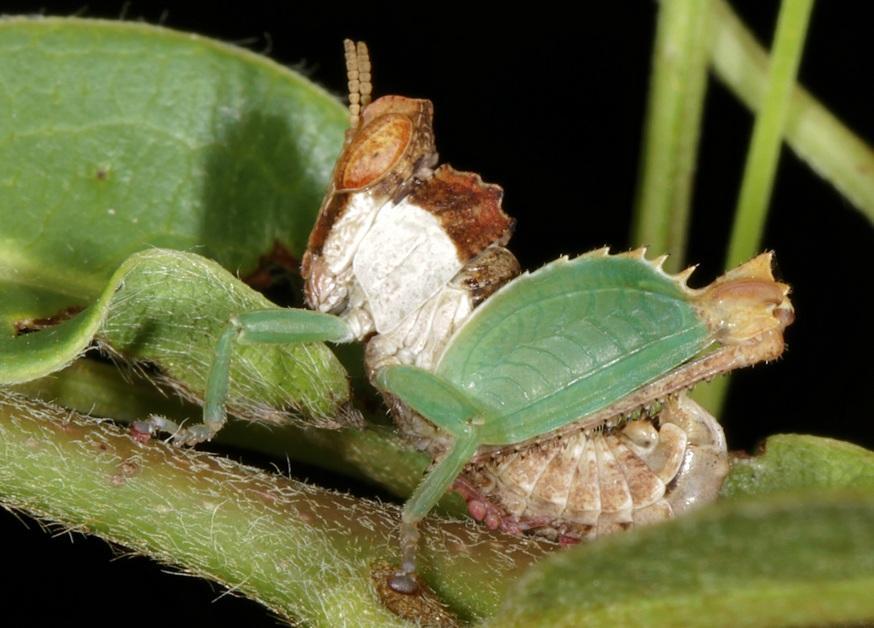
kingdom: Animalia
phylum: Arthropoda
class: Insecta
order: Orthoptera
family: Thericleidae
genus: Schulthessiella
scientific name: Schulthessiella minuta
